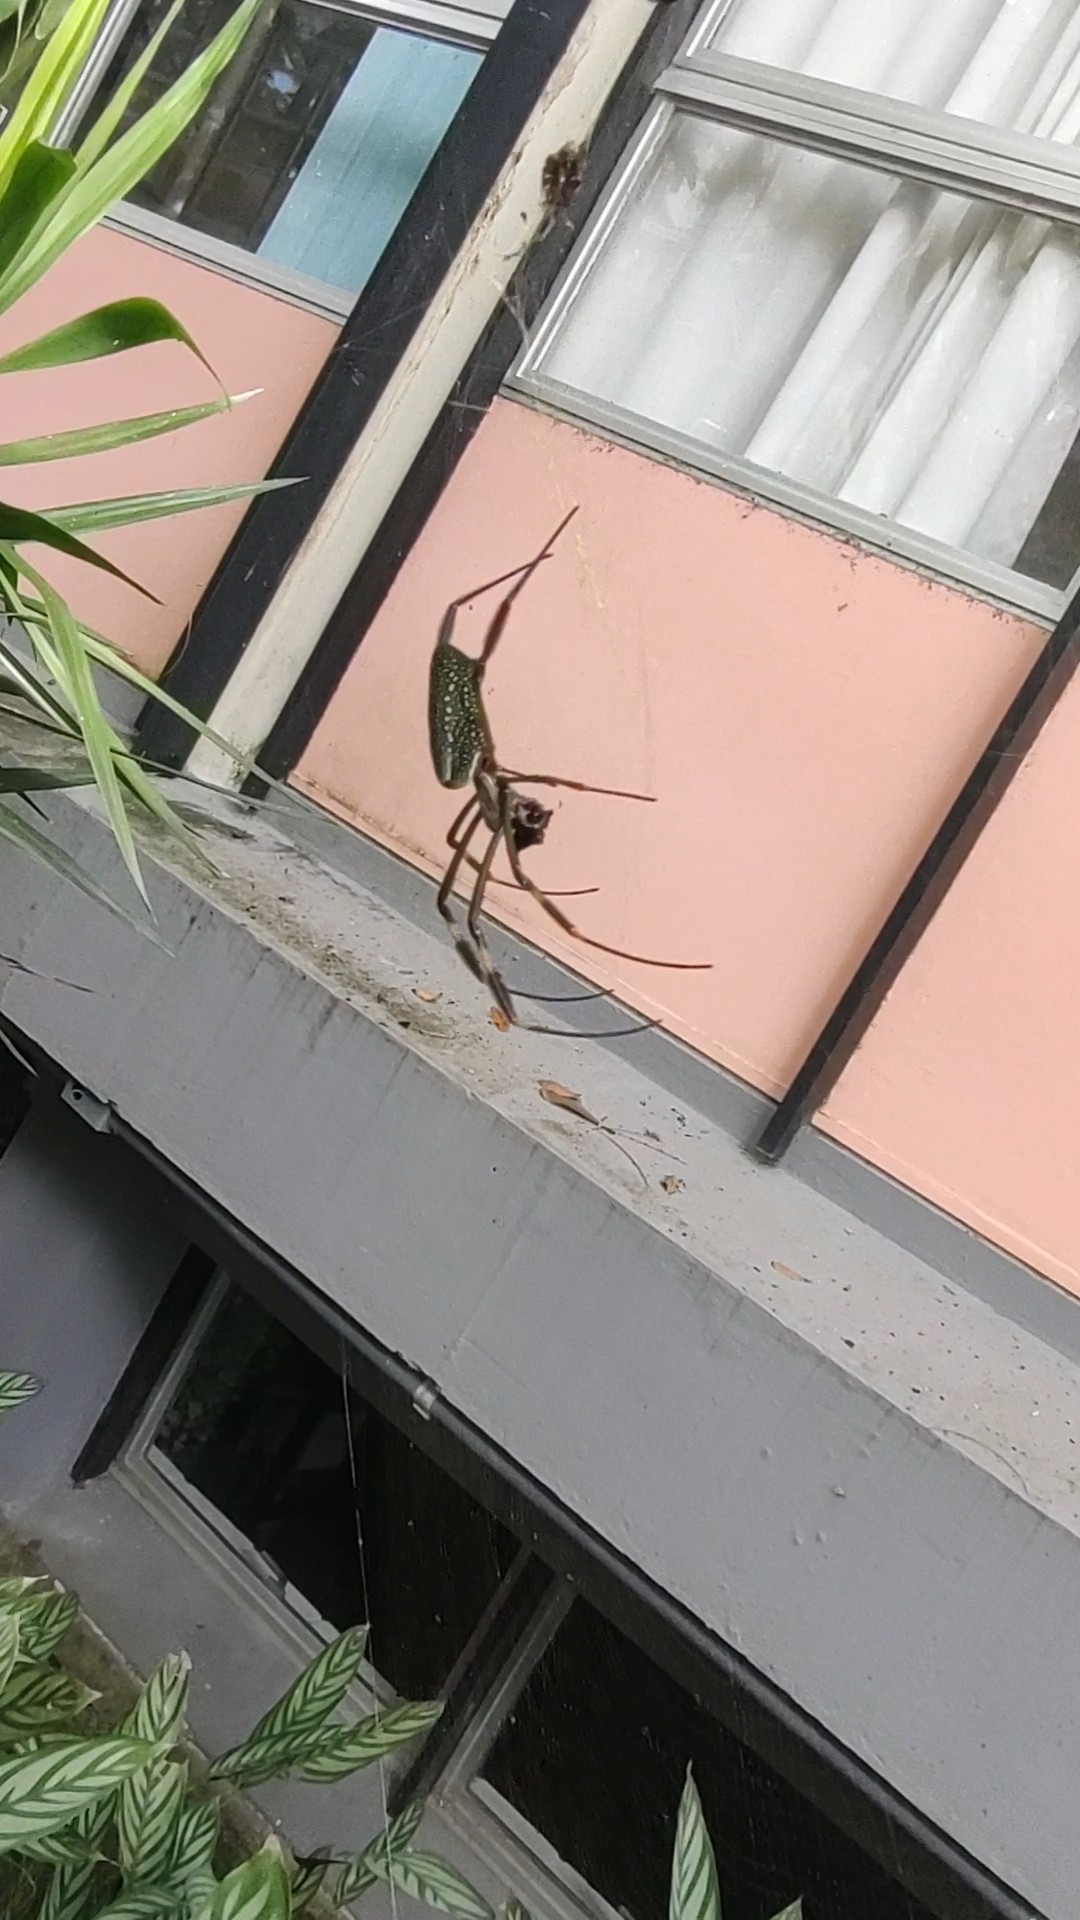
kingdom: Animalia
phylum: Arthropoda
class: Arachnida
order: Araneae
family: Araneidae
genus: Trichonephila
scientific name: Trichonephila clavipes
